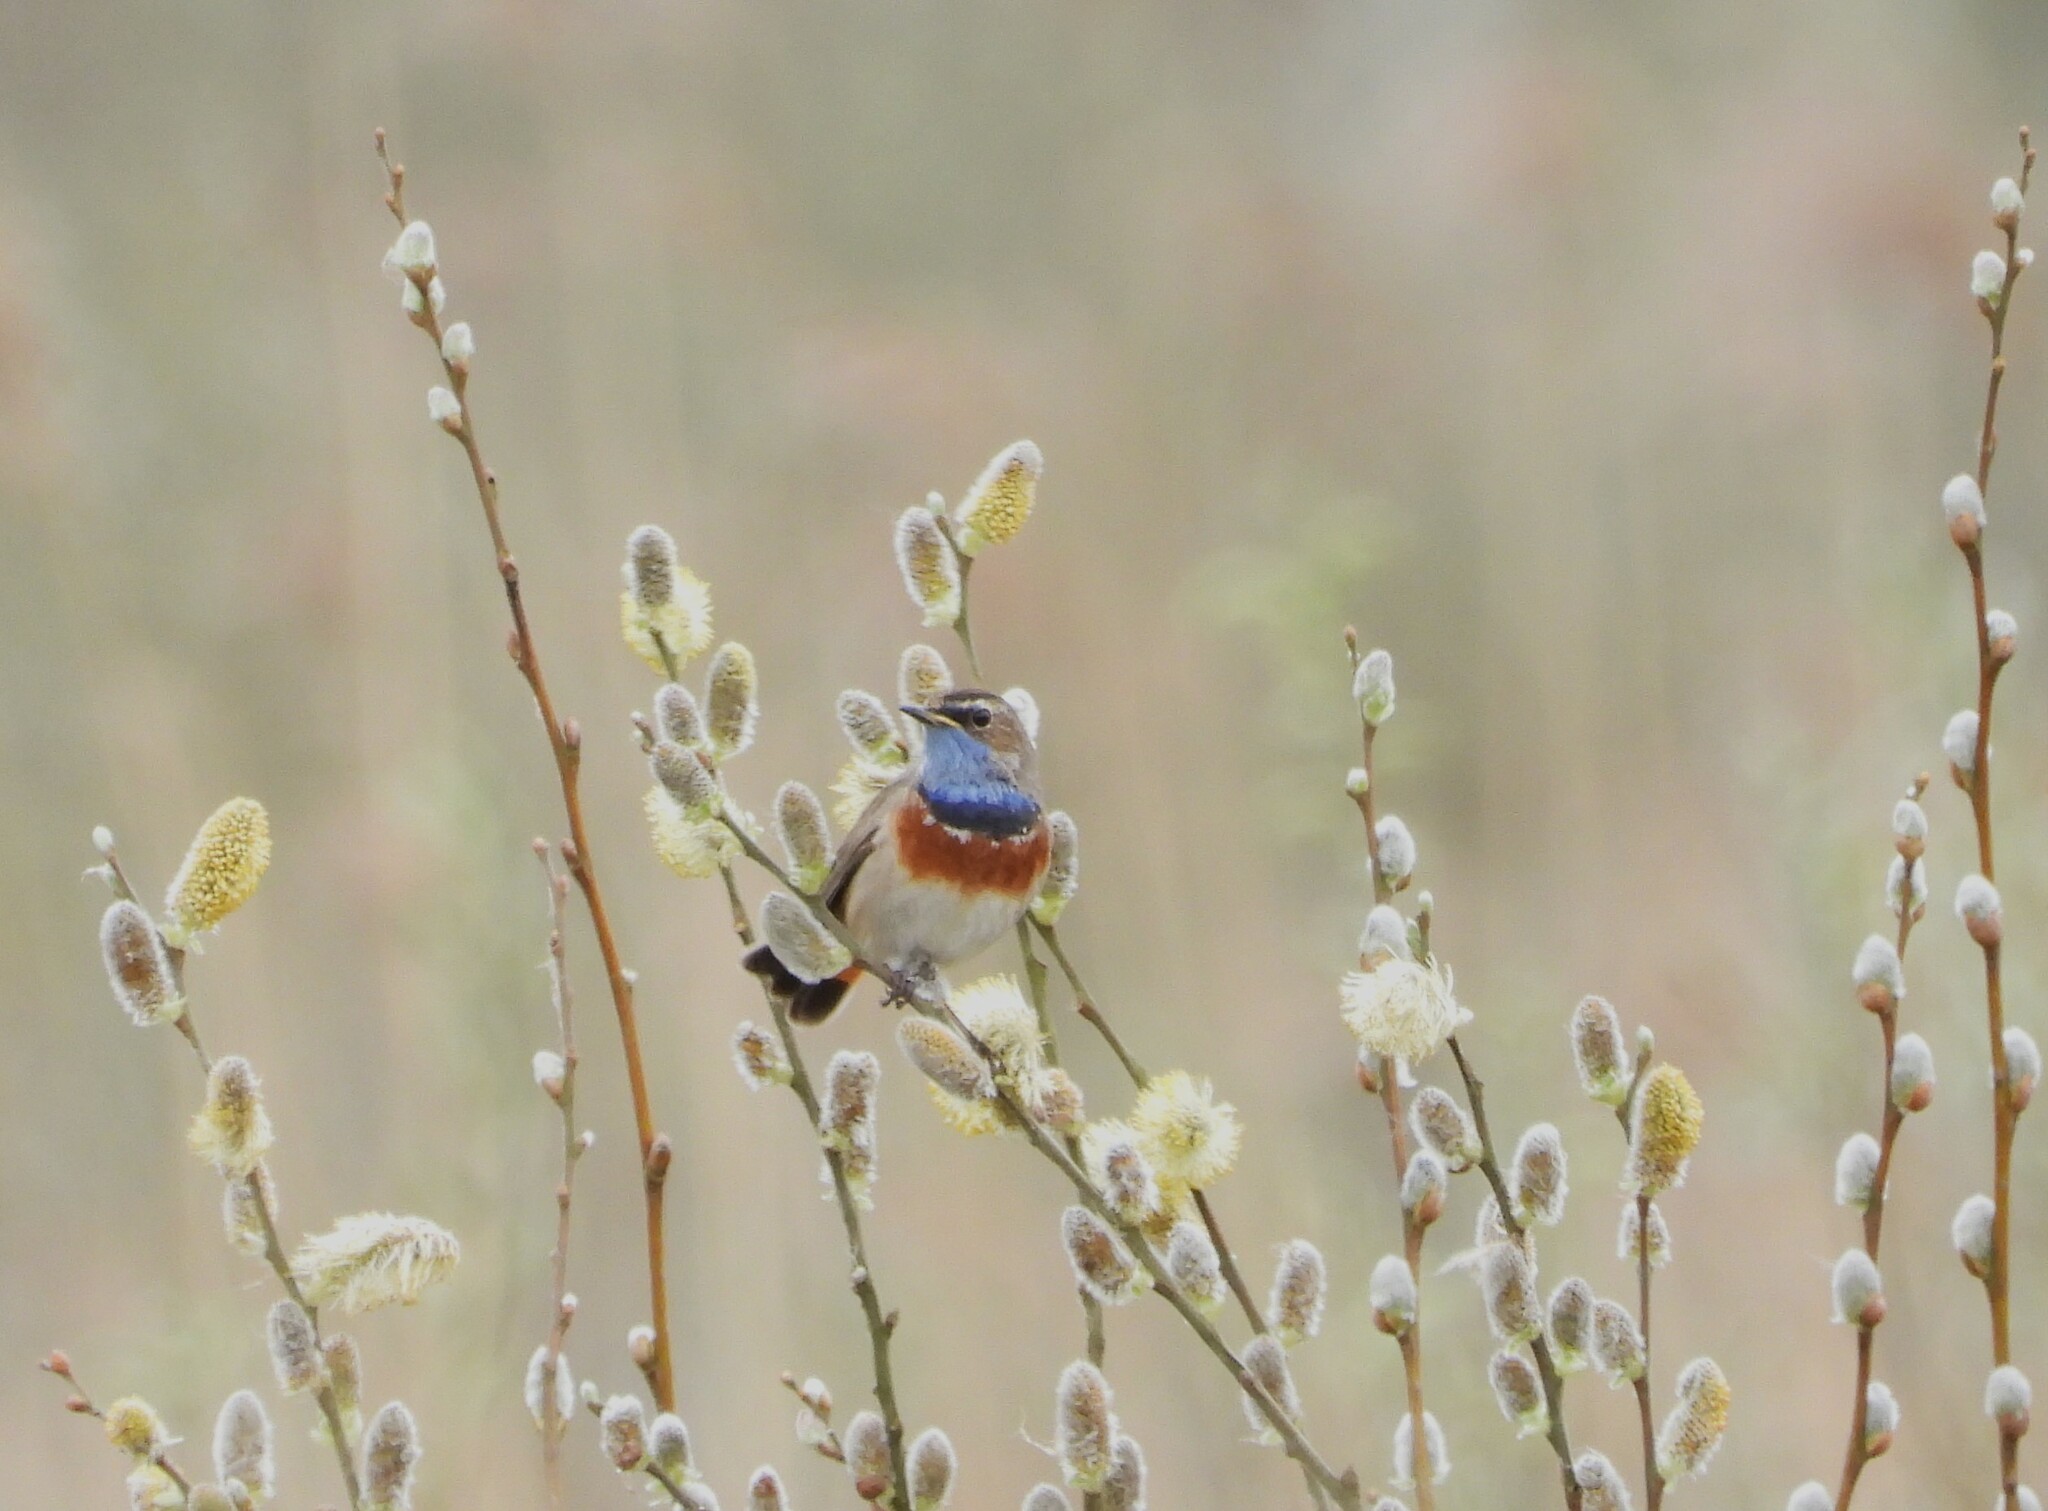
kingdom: Animalia
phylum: Chordata
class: Aves
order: Passeriformes
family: Muscicapidae
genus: Luscinia
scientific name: Luscinia svecica
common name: Bluethroat
